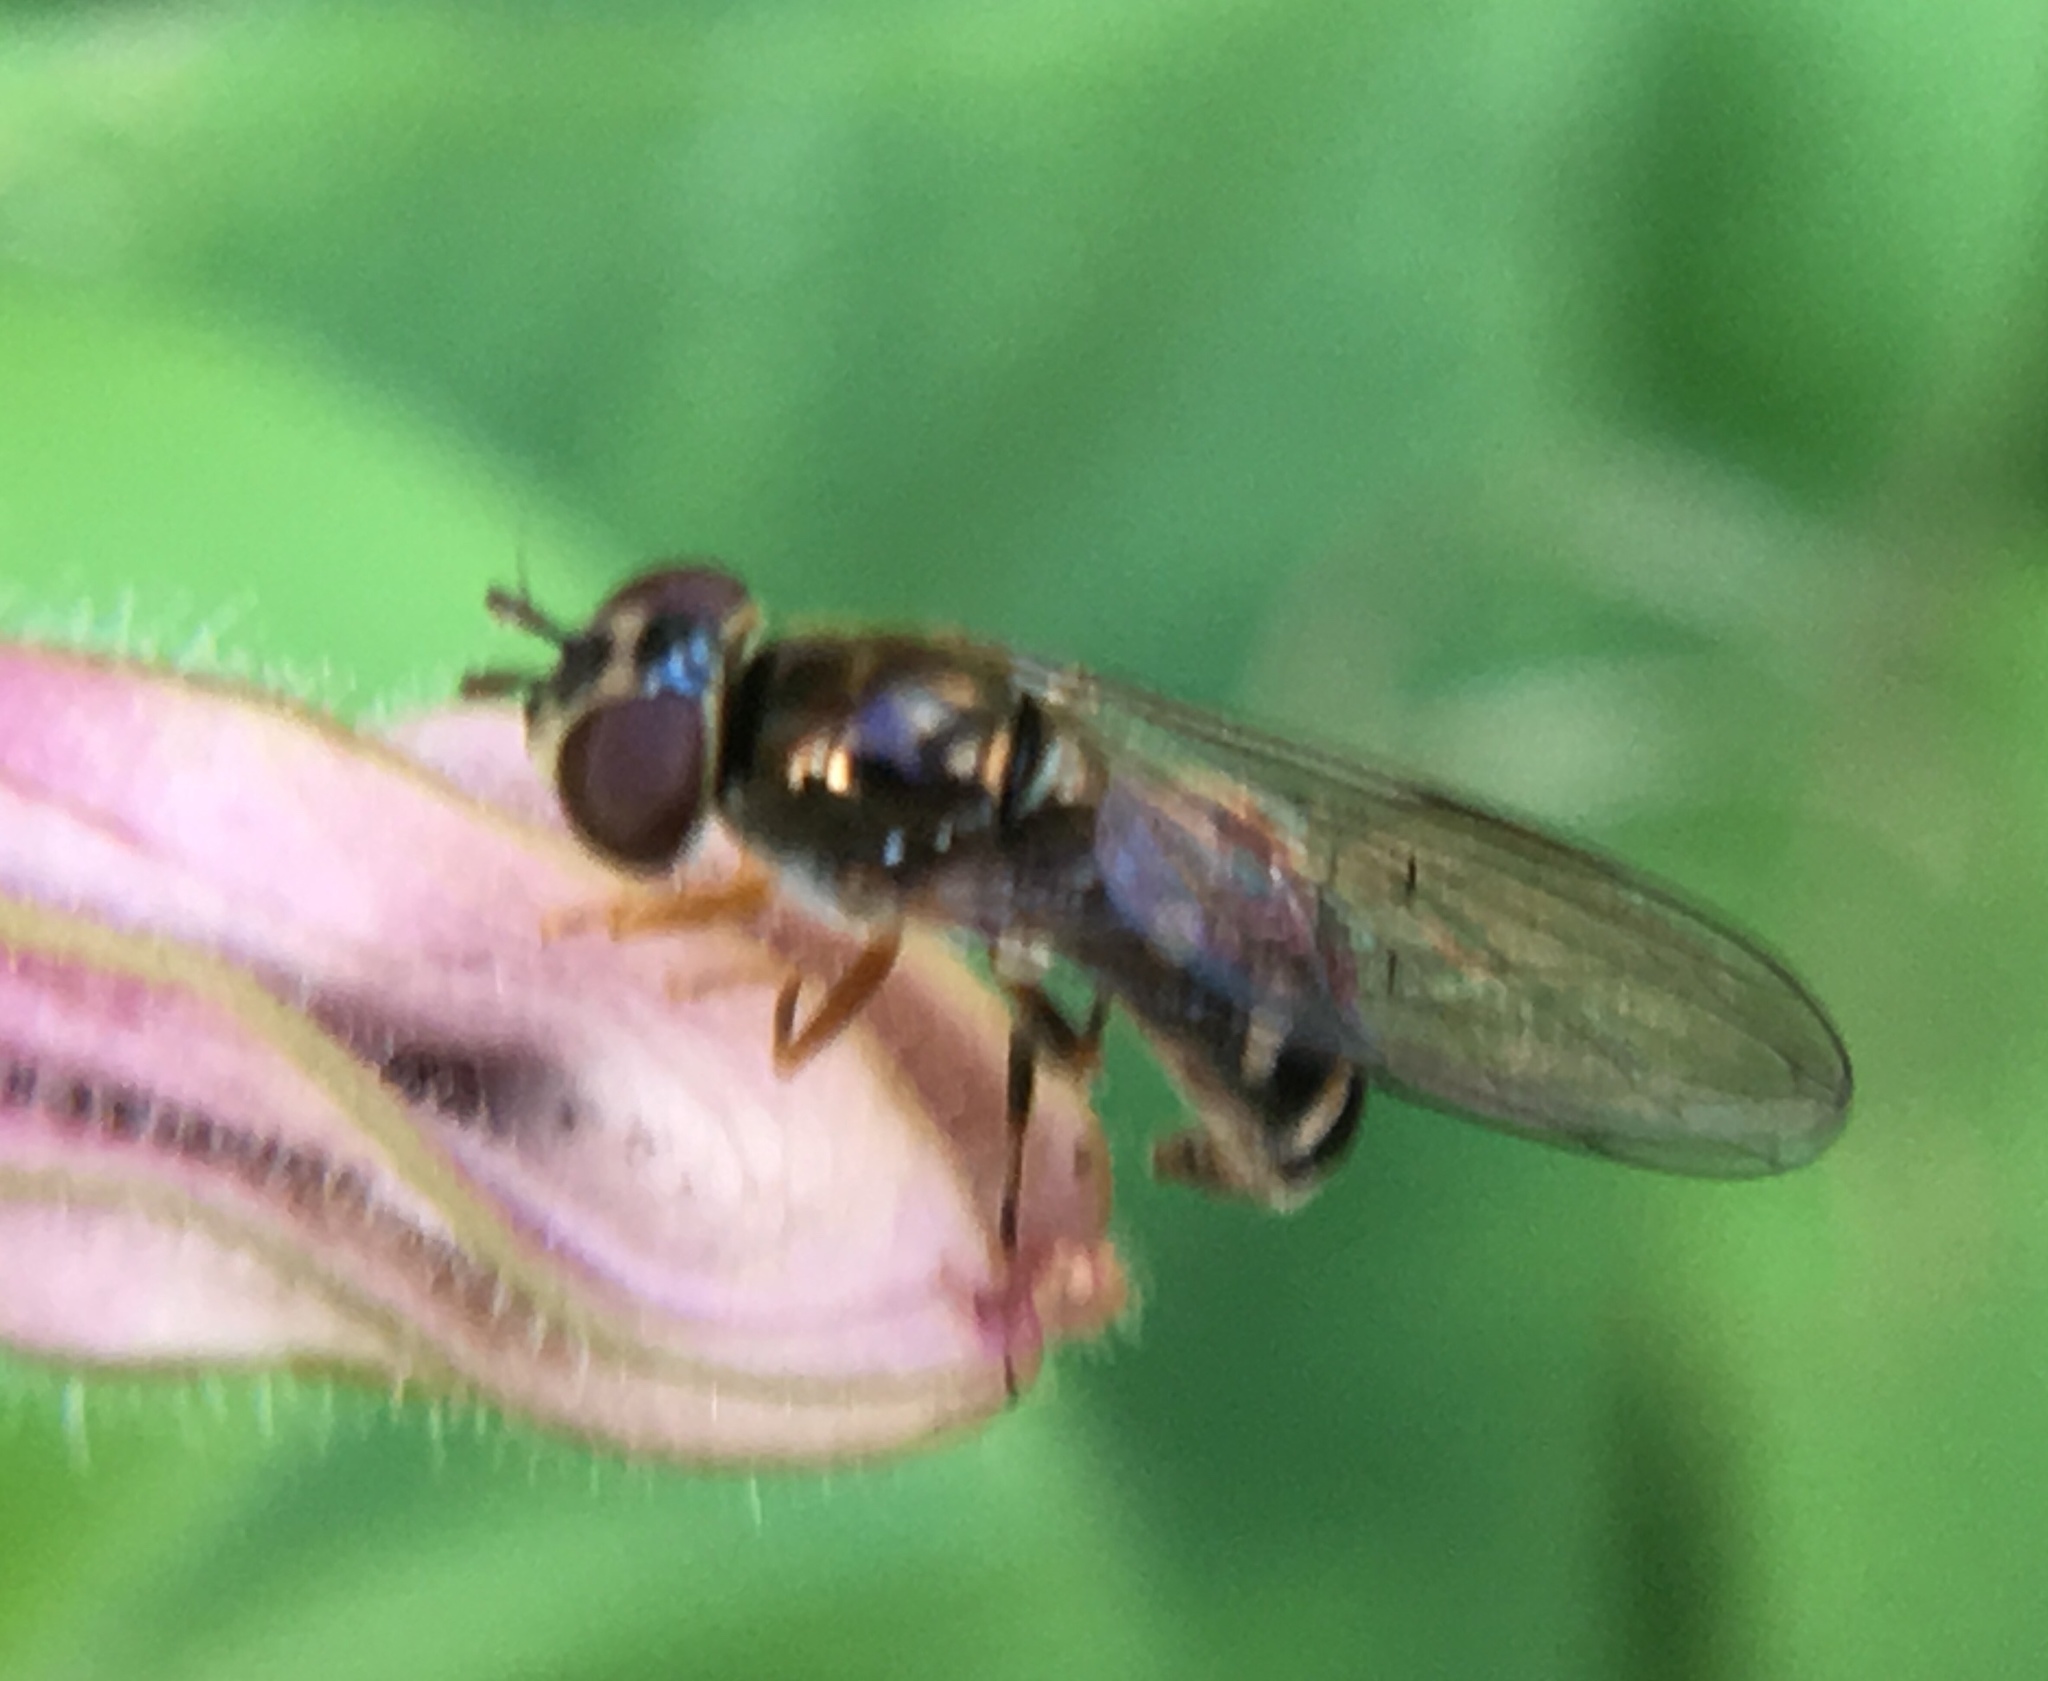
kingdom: Animalia
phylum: Arthropoda
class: Insecta
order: Diptera
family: Syrphidae
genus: Platycheirus
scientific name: Platycheirus
